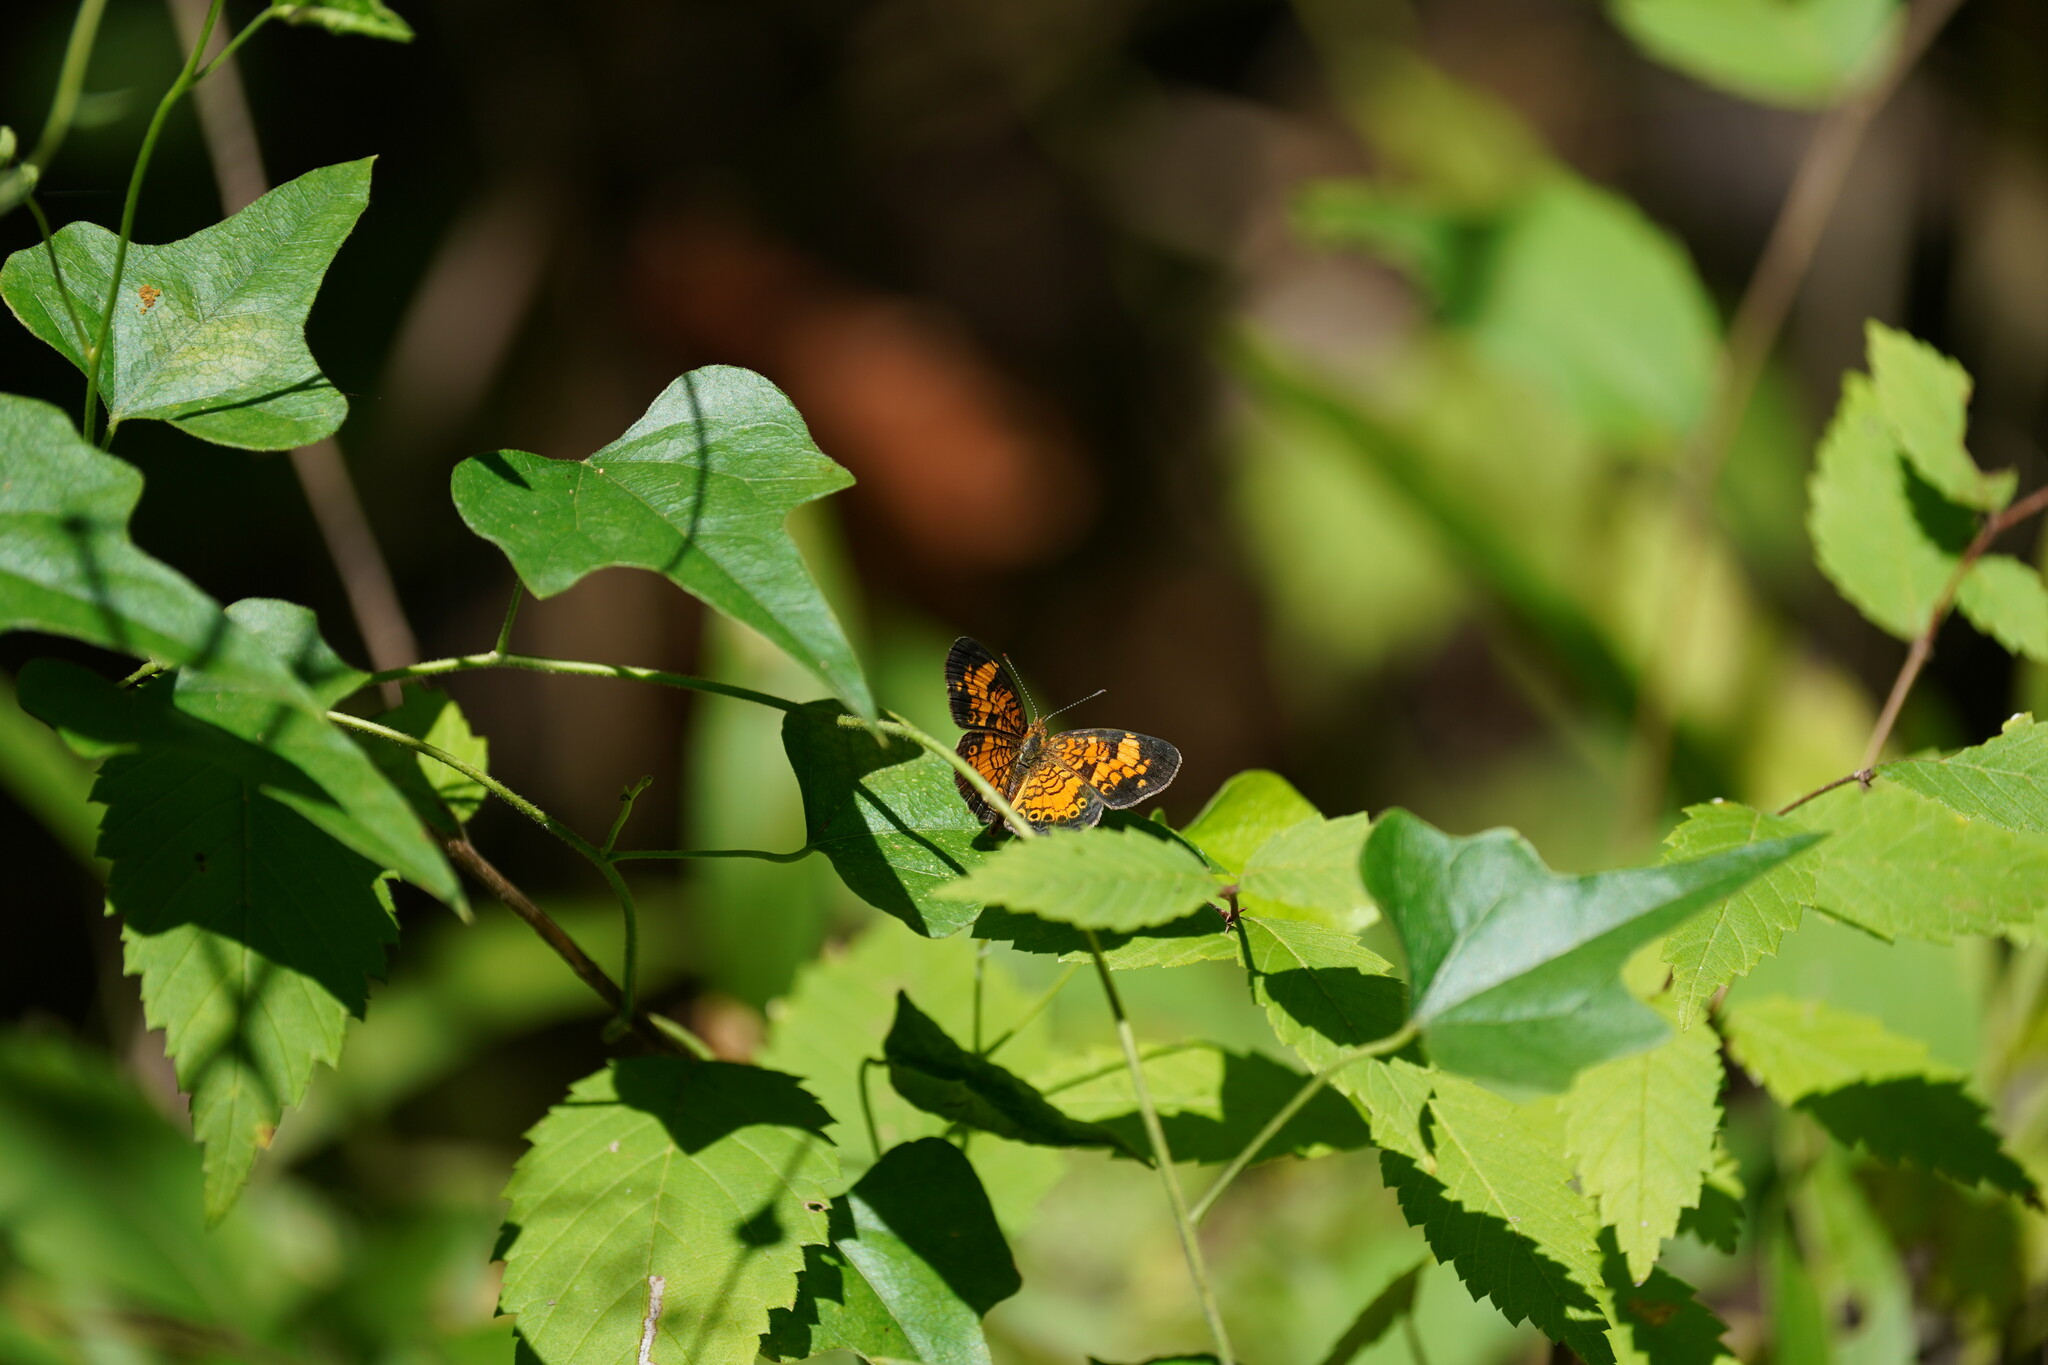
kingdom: Animalia
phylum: Arthropoda
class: Insecta
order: Lepidoptera
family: Nymphalidae
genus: Phyciodes
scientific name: Phyciodes tharos
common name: Pearl crescent
